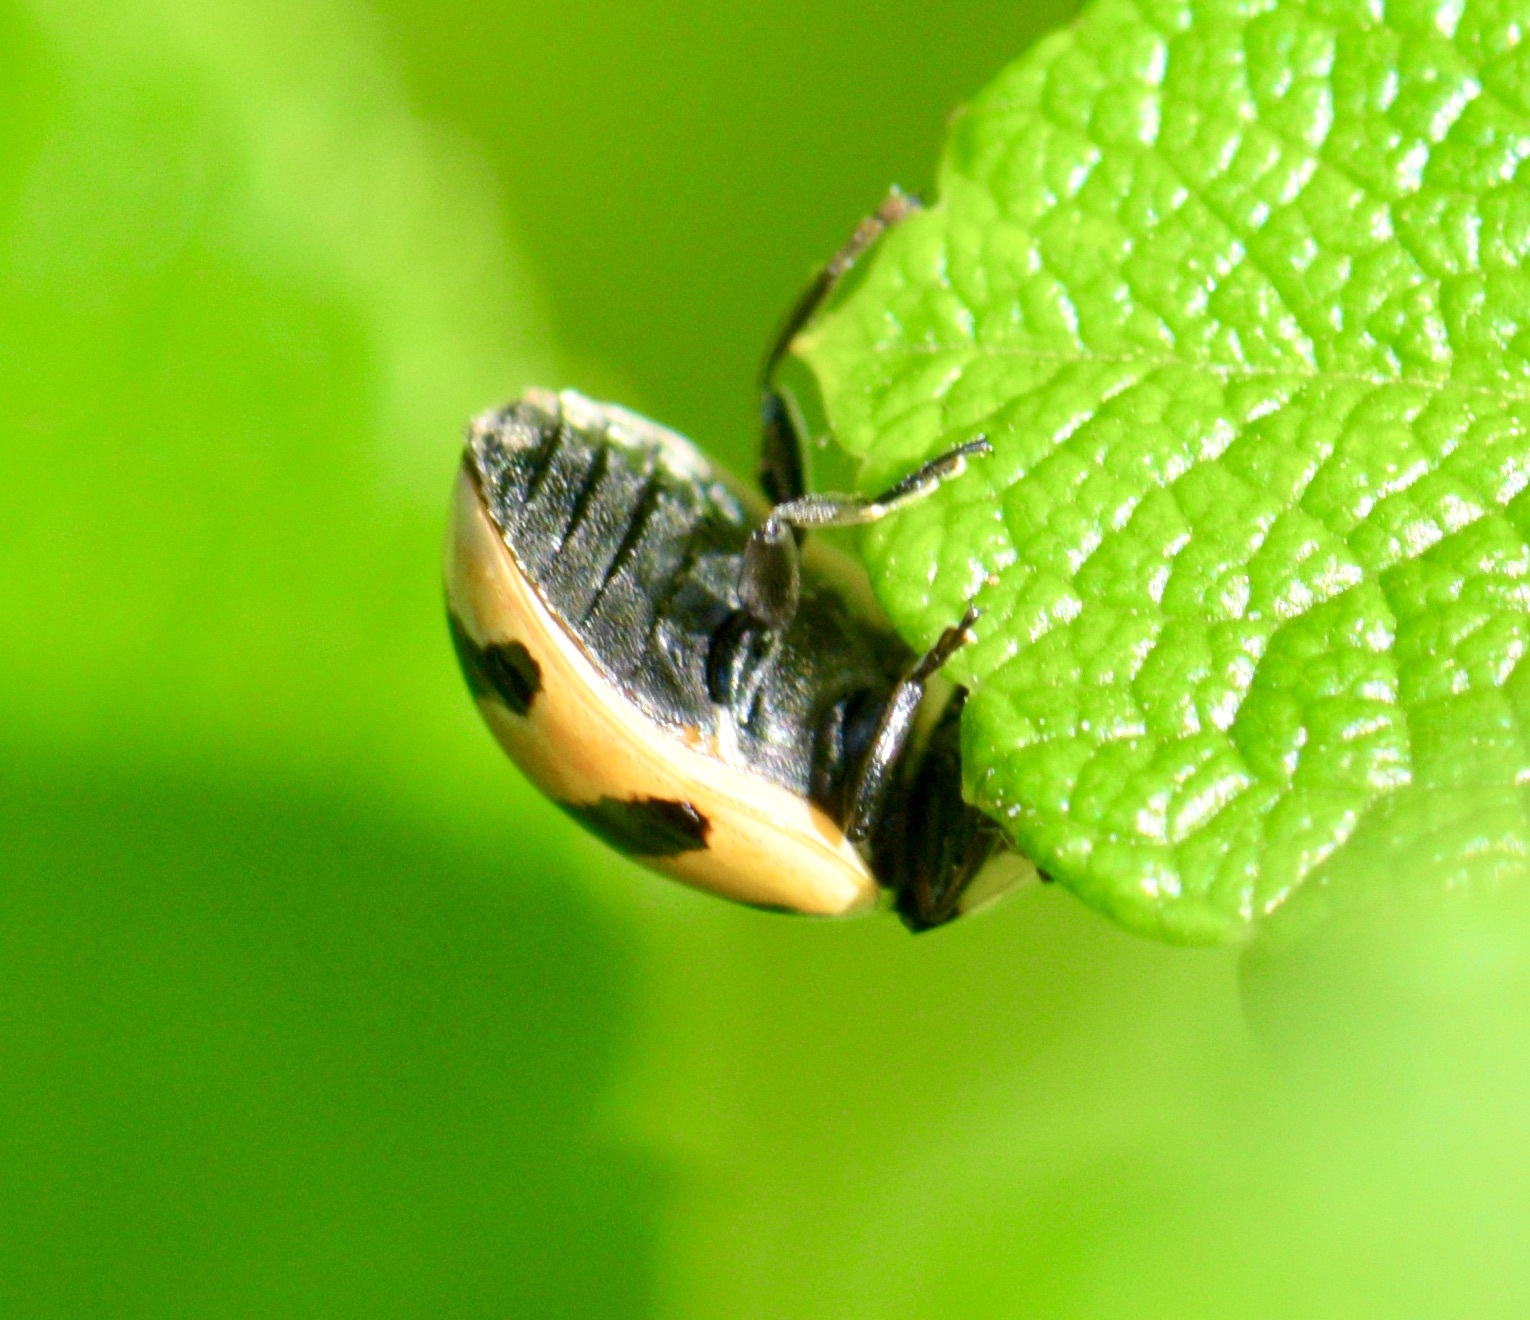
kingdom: Animalia
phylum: Arthropoda
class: Insecta
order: Coleoptera
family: Coccinellidae
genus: Coccinella
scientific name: Coccinella trifasciata
